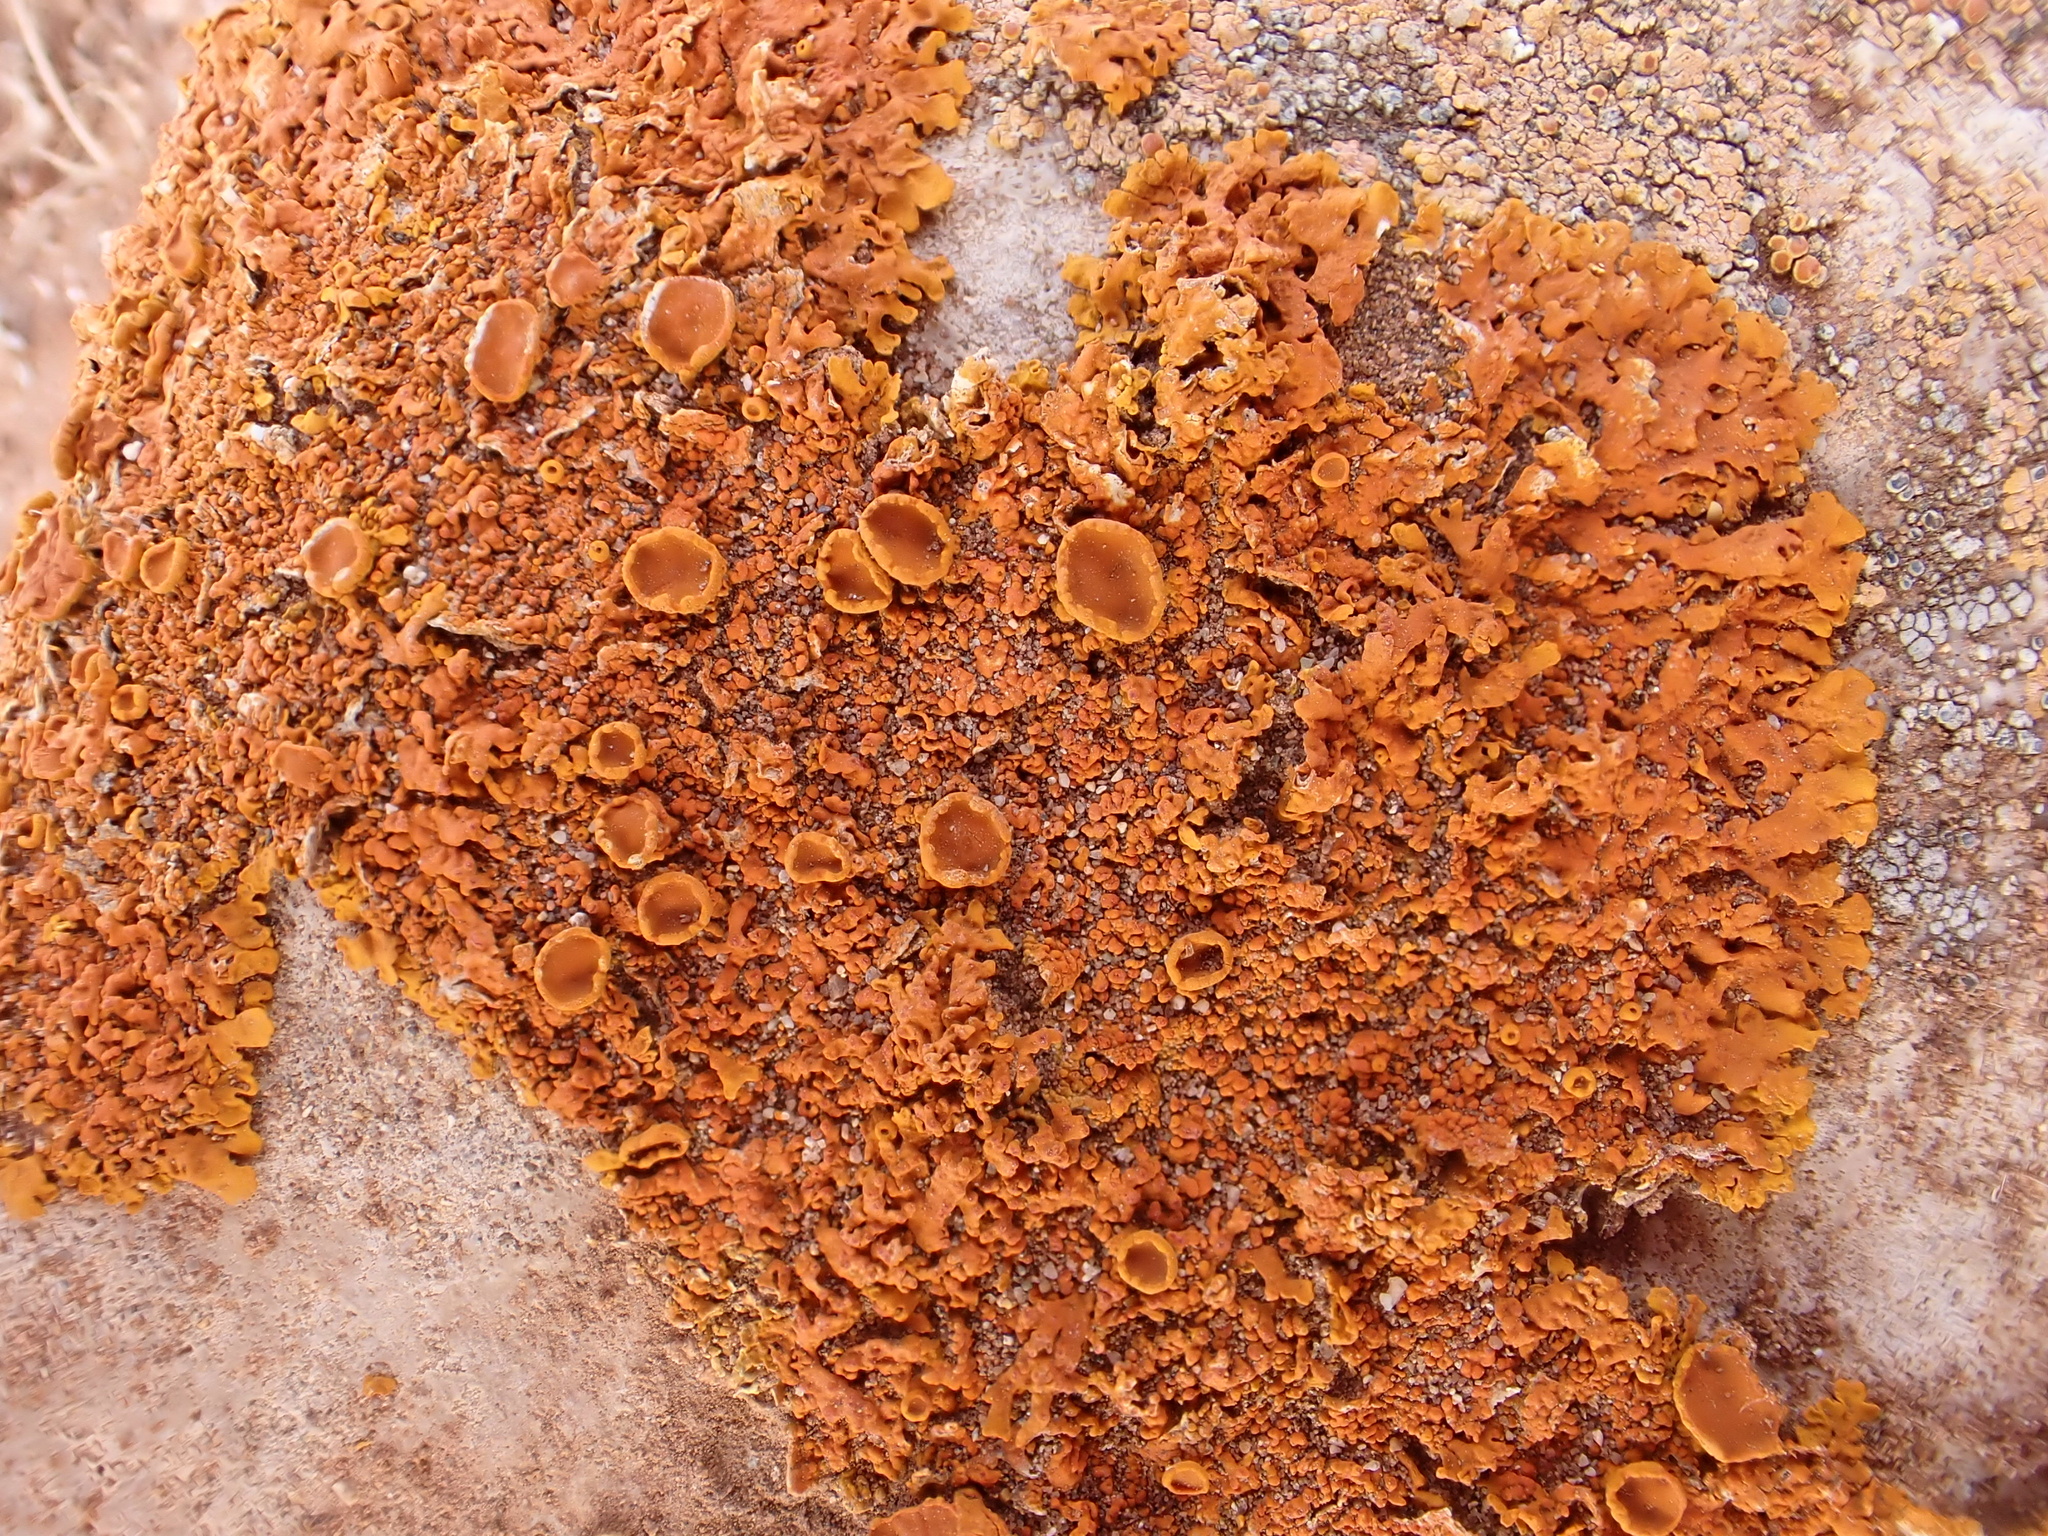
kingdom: Fungi
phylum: Ascomycota
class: Lecanoromycetes
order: Teloschistales
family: Teloschistaceae
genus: Xanthoria
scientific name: Xanthoria calcicola
